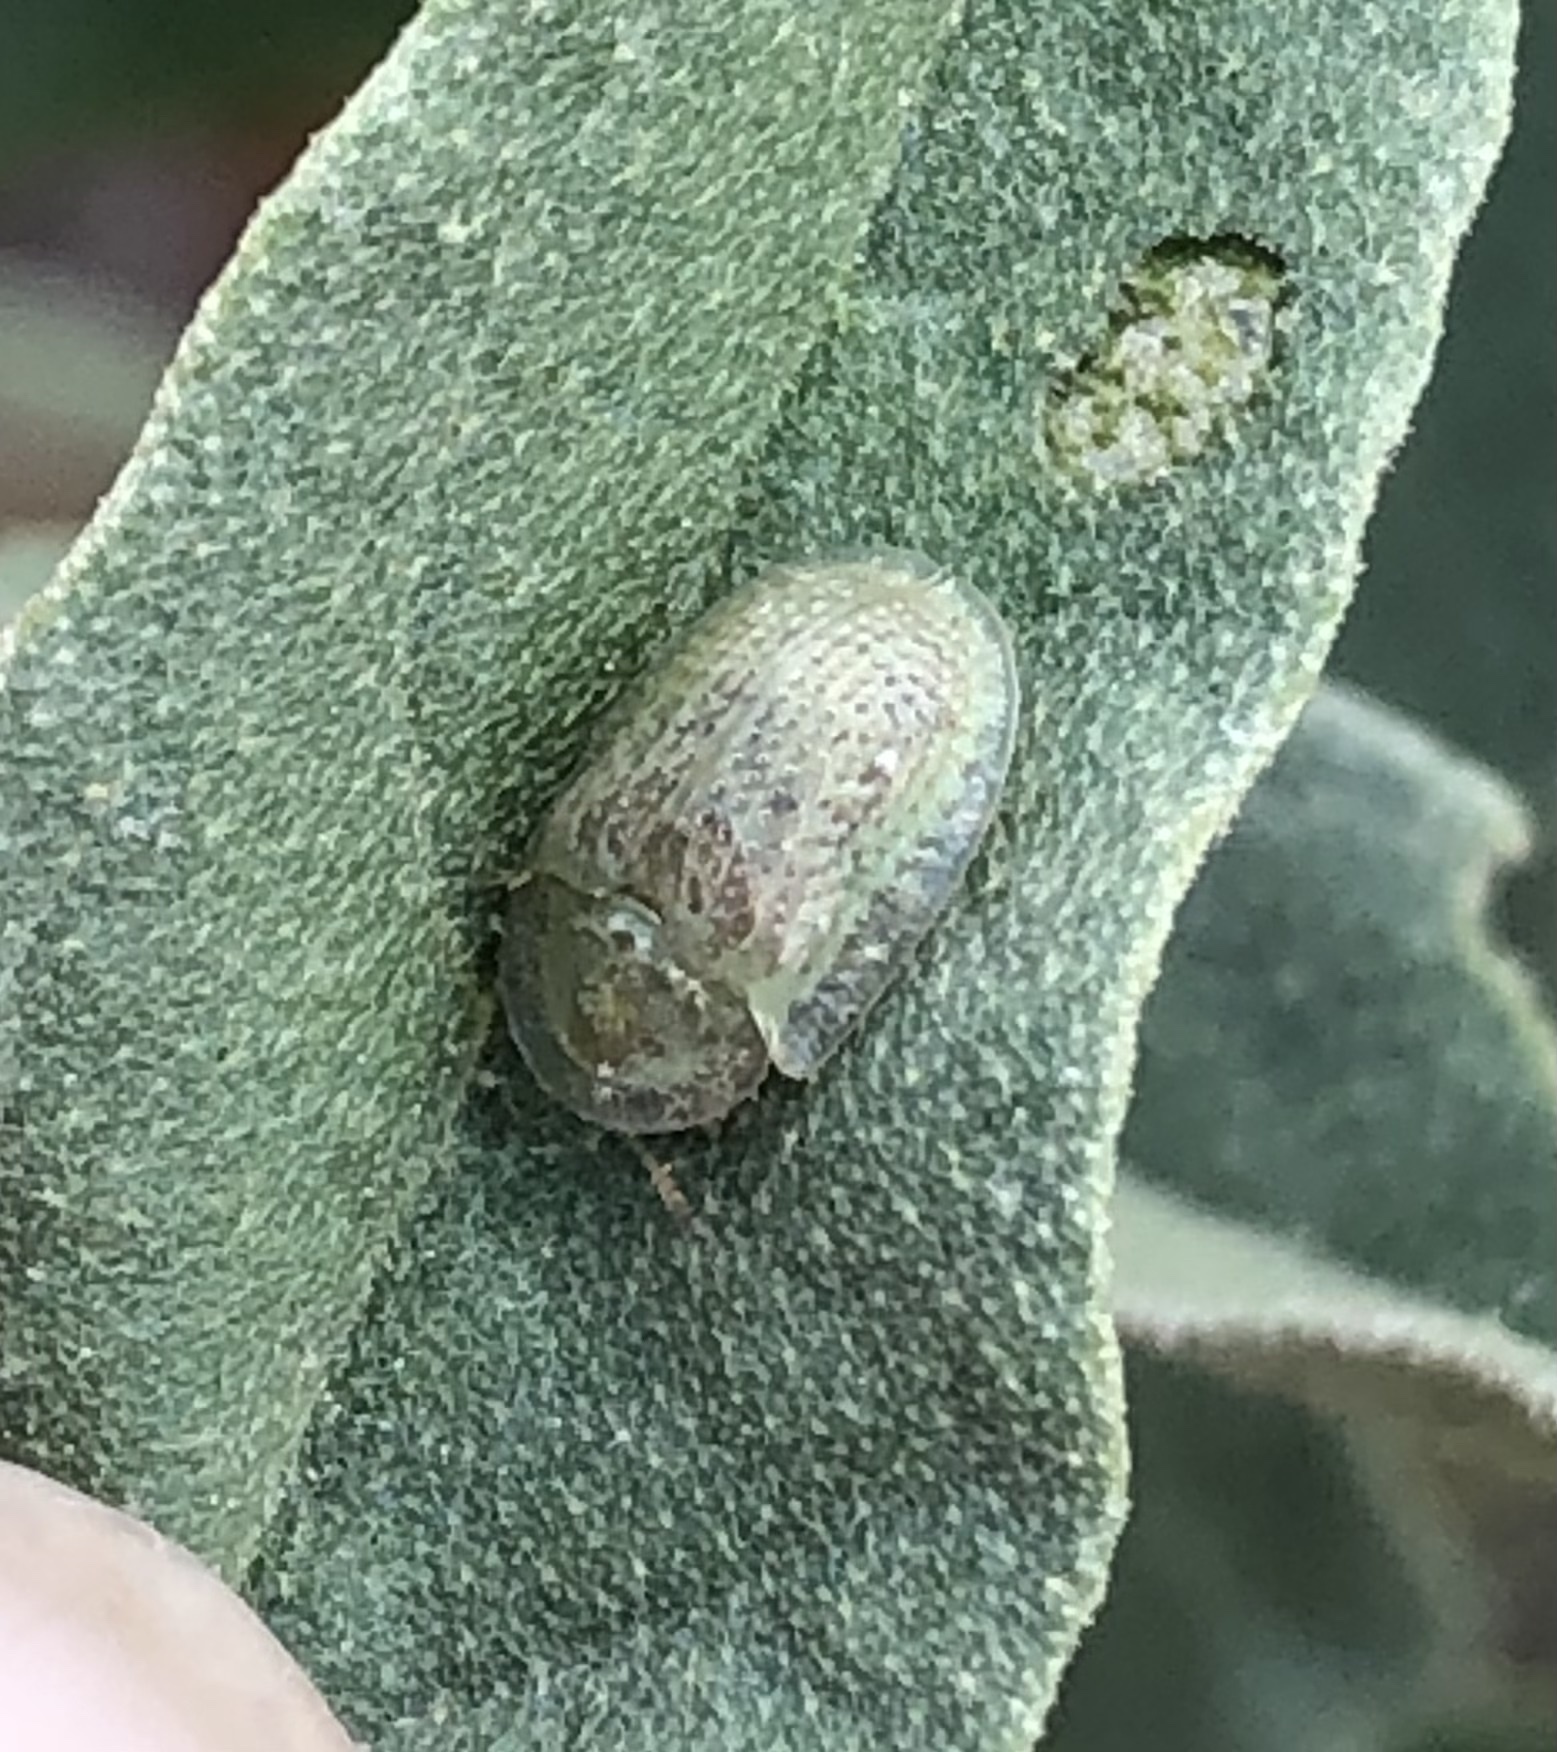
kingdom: Animalia
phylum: Arthropoda
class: Insecta
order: Coleoptera
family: Chrysomelidae
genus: Gratiana
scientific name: Gratiana pallidula
